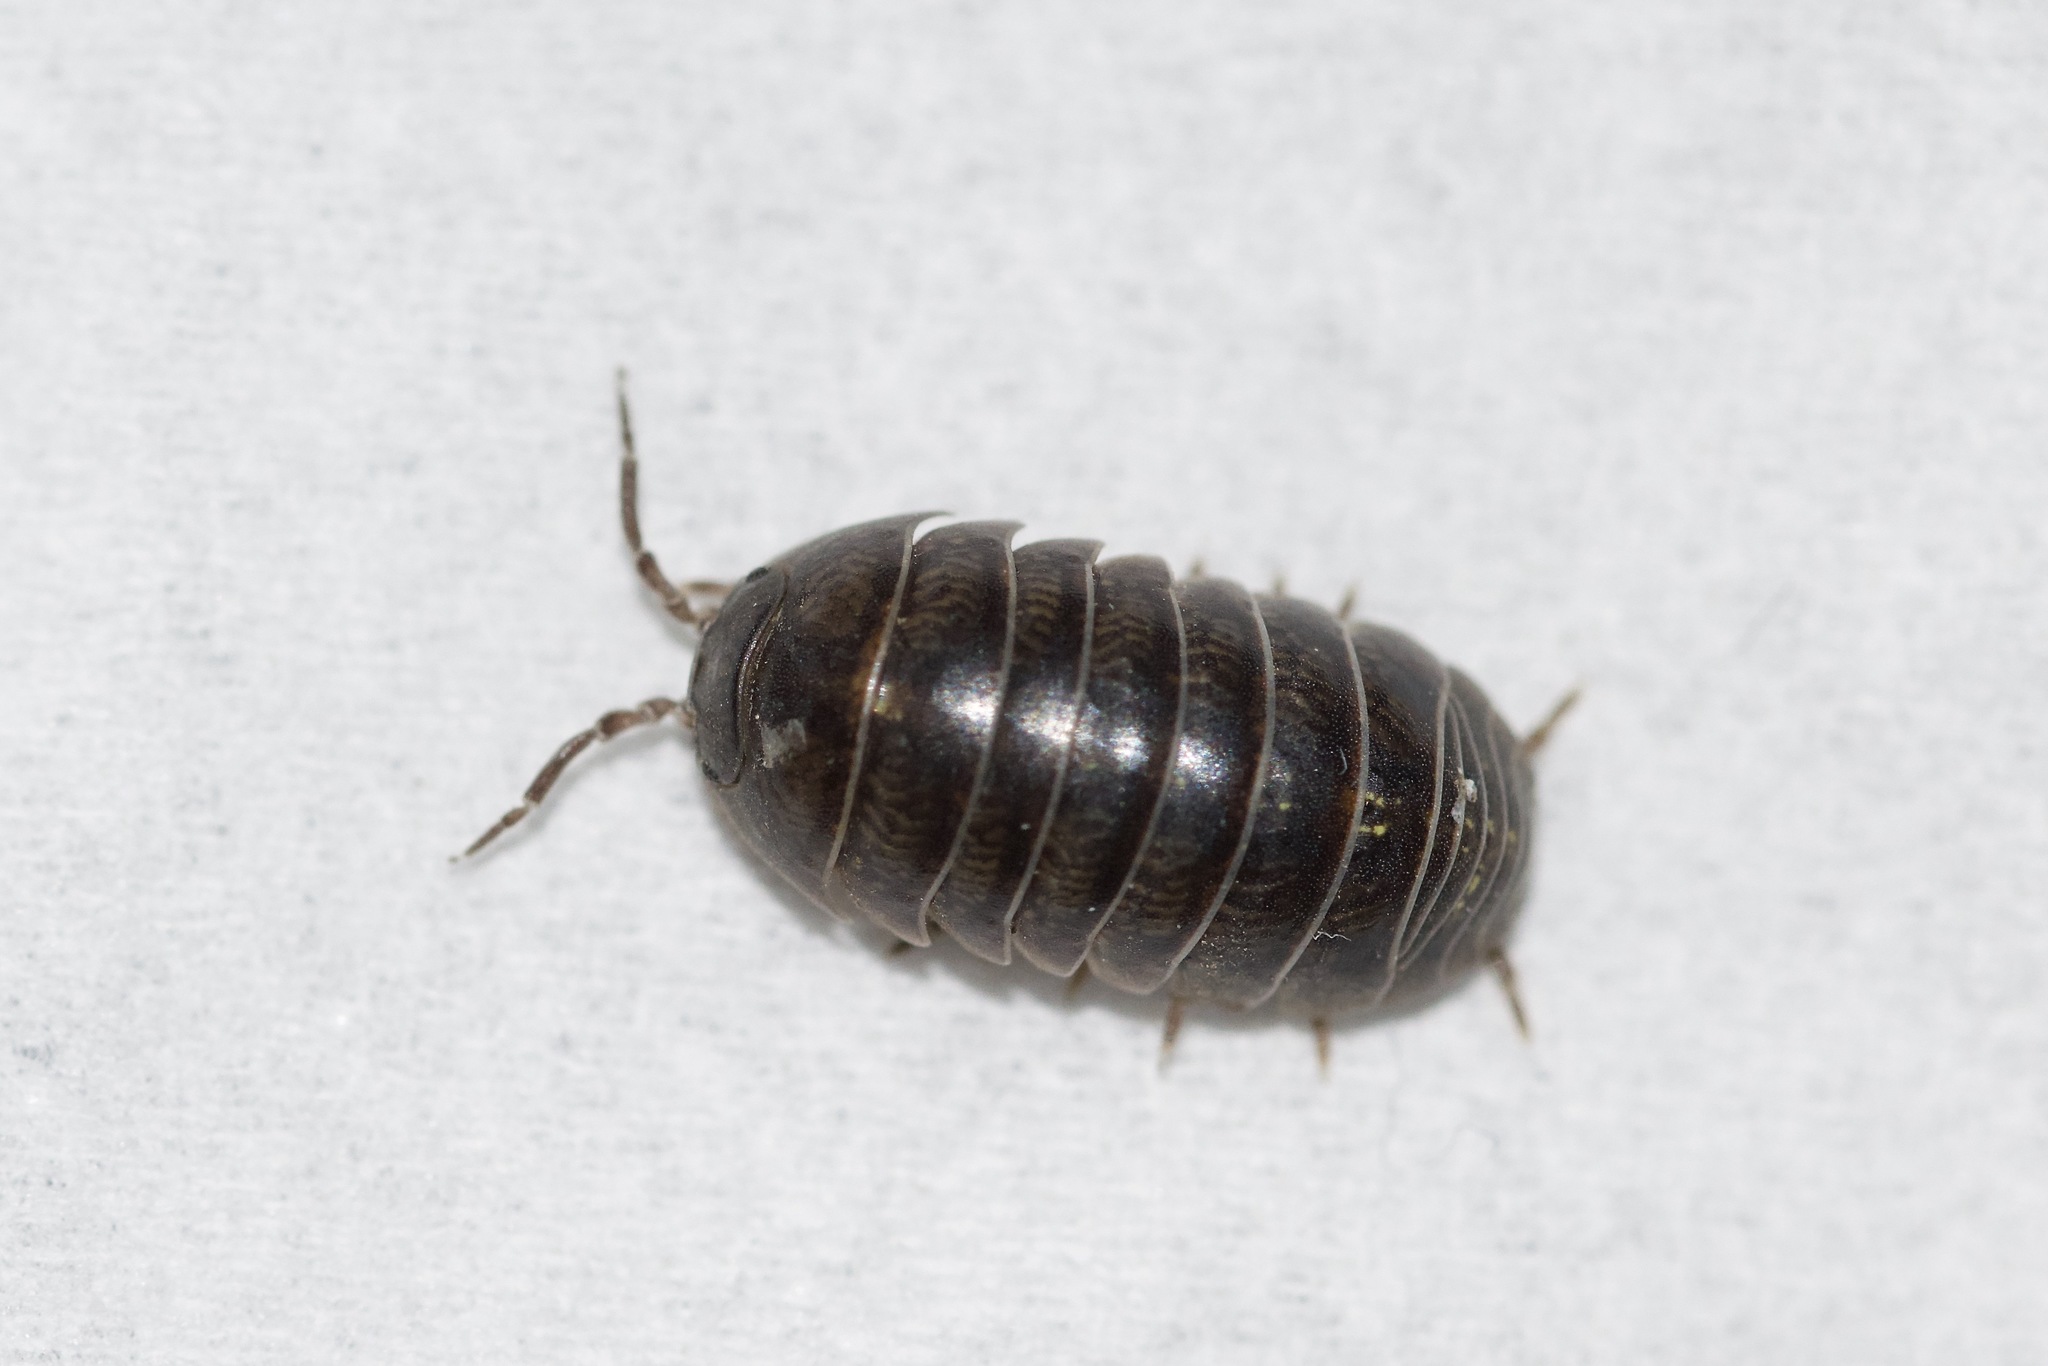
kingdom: Animalia
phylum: Arthropoda
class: Malacostraca
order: Isopoda
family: Armadillidiidae
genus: Armadillidium
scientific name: Armadillidium vulgare
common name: Common pill woodlouse
